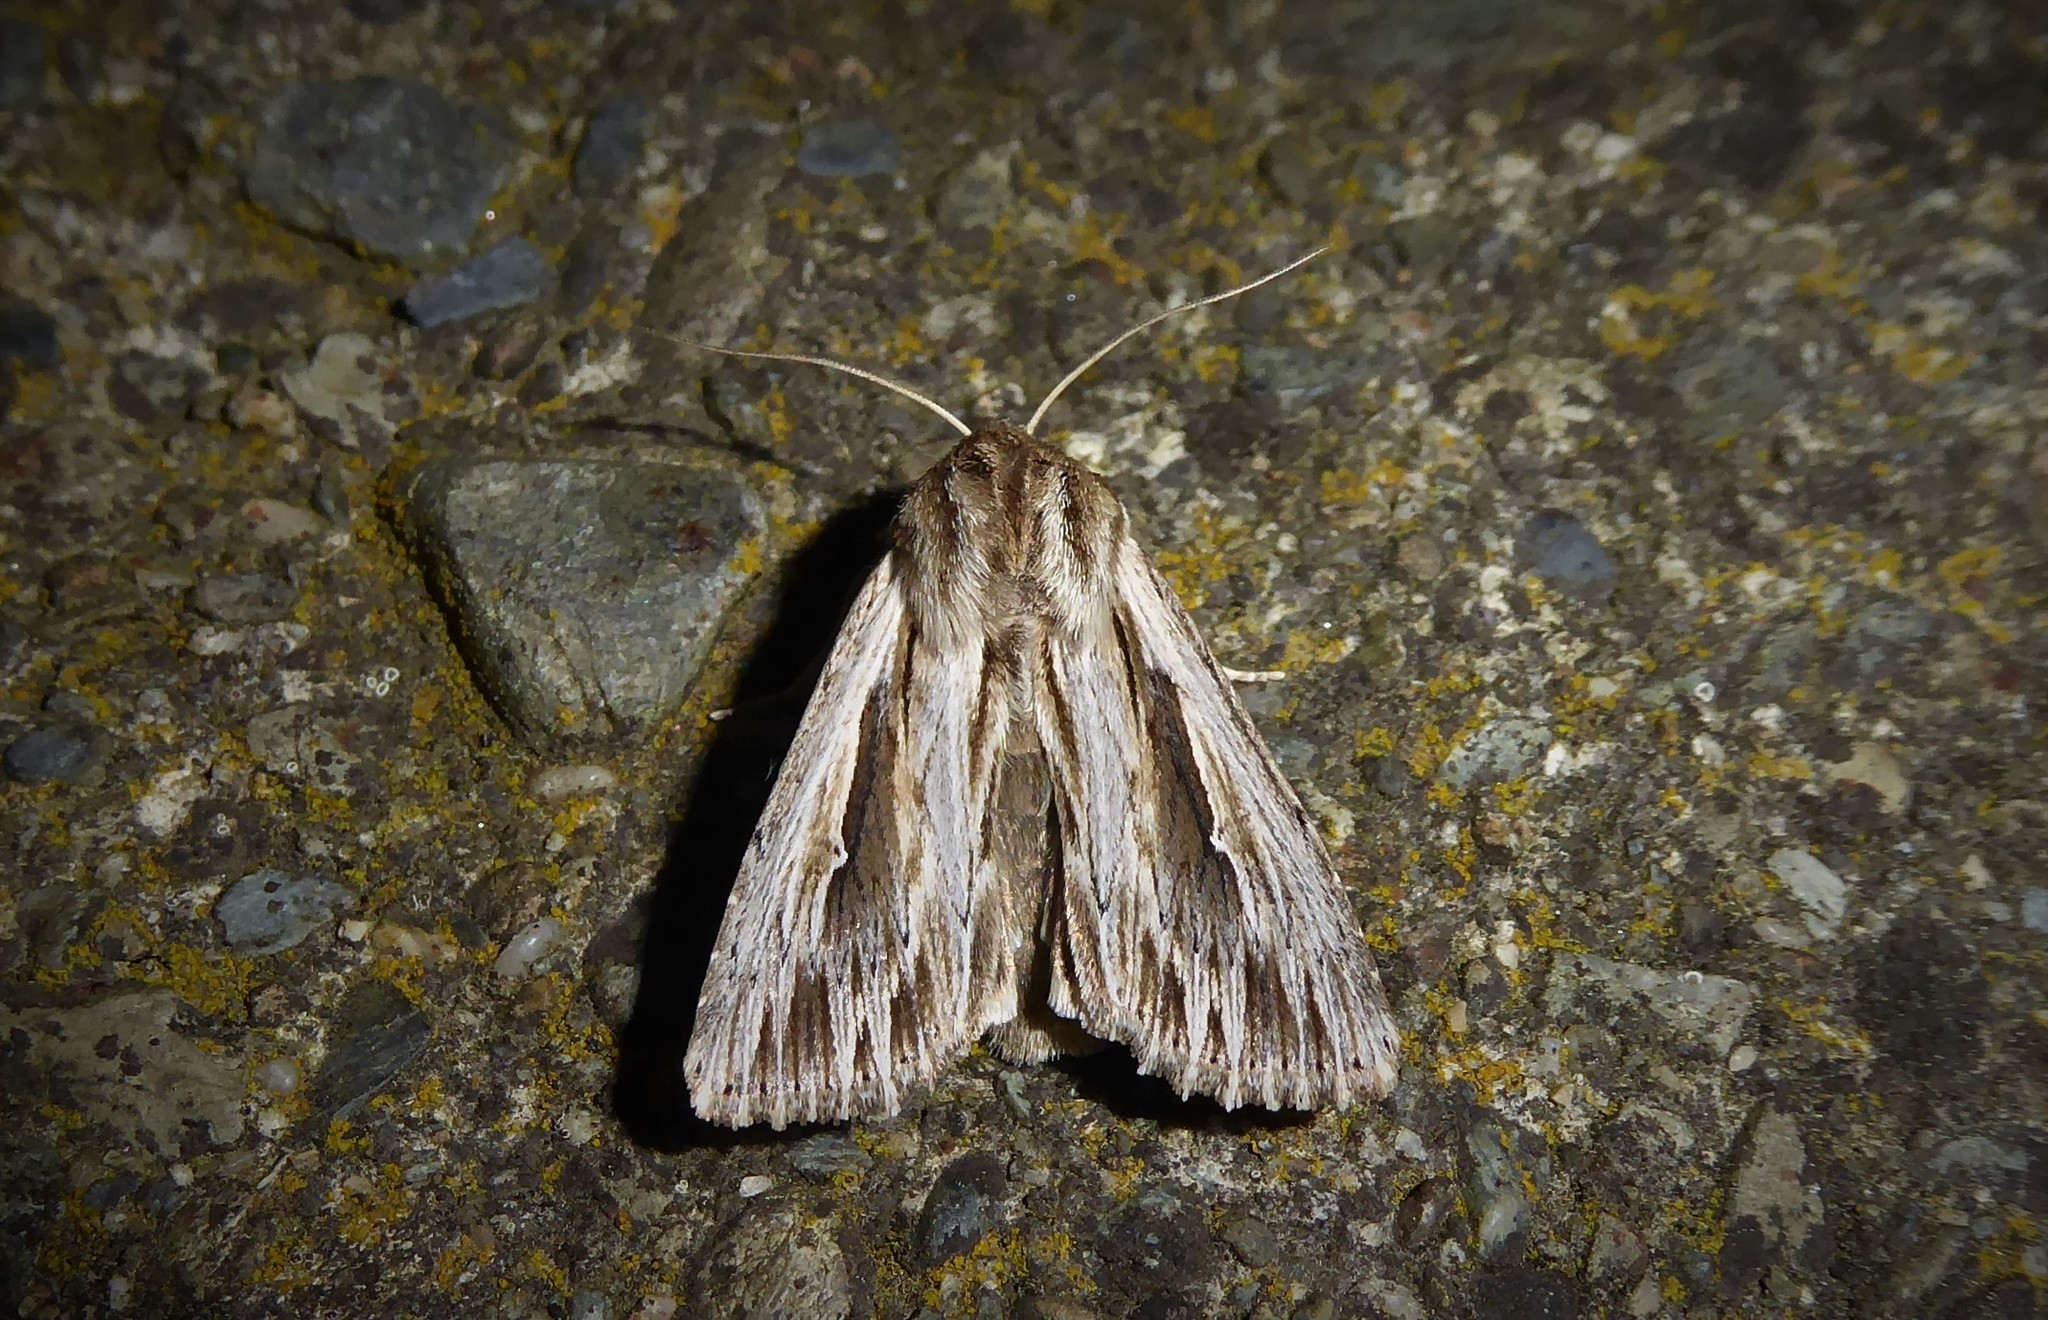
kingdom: Animalia
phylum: Arthropoda
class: Insecta
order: Lepidoptera
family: Noctuidae
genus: Persectania
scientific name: Persectania aversa
